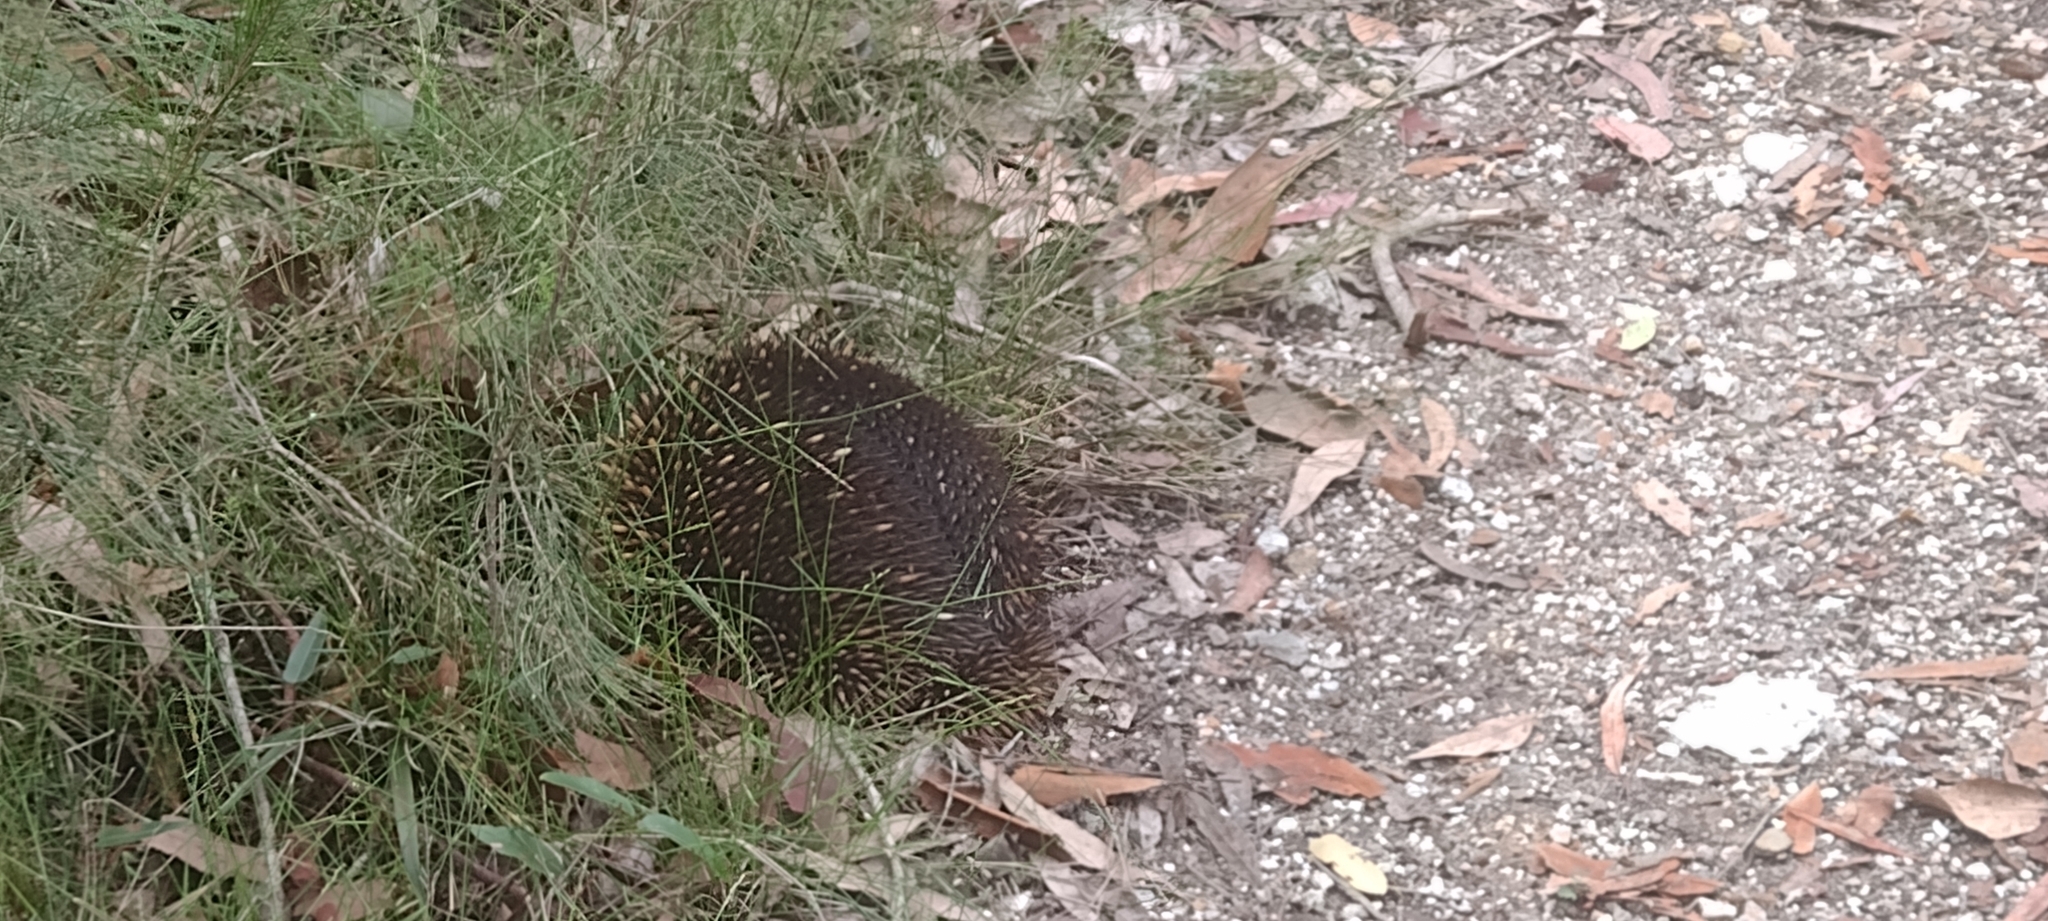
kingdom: Animalia
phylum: Chordata
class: Mammalia
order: Monotremata
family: Tachyglossidae
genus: Tachyglossus
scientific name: Tachyglossus aculeatus
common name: Short-beaked echidna
